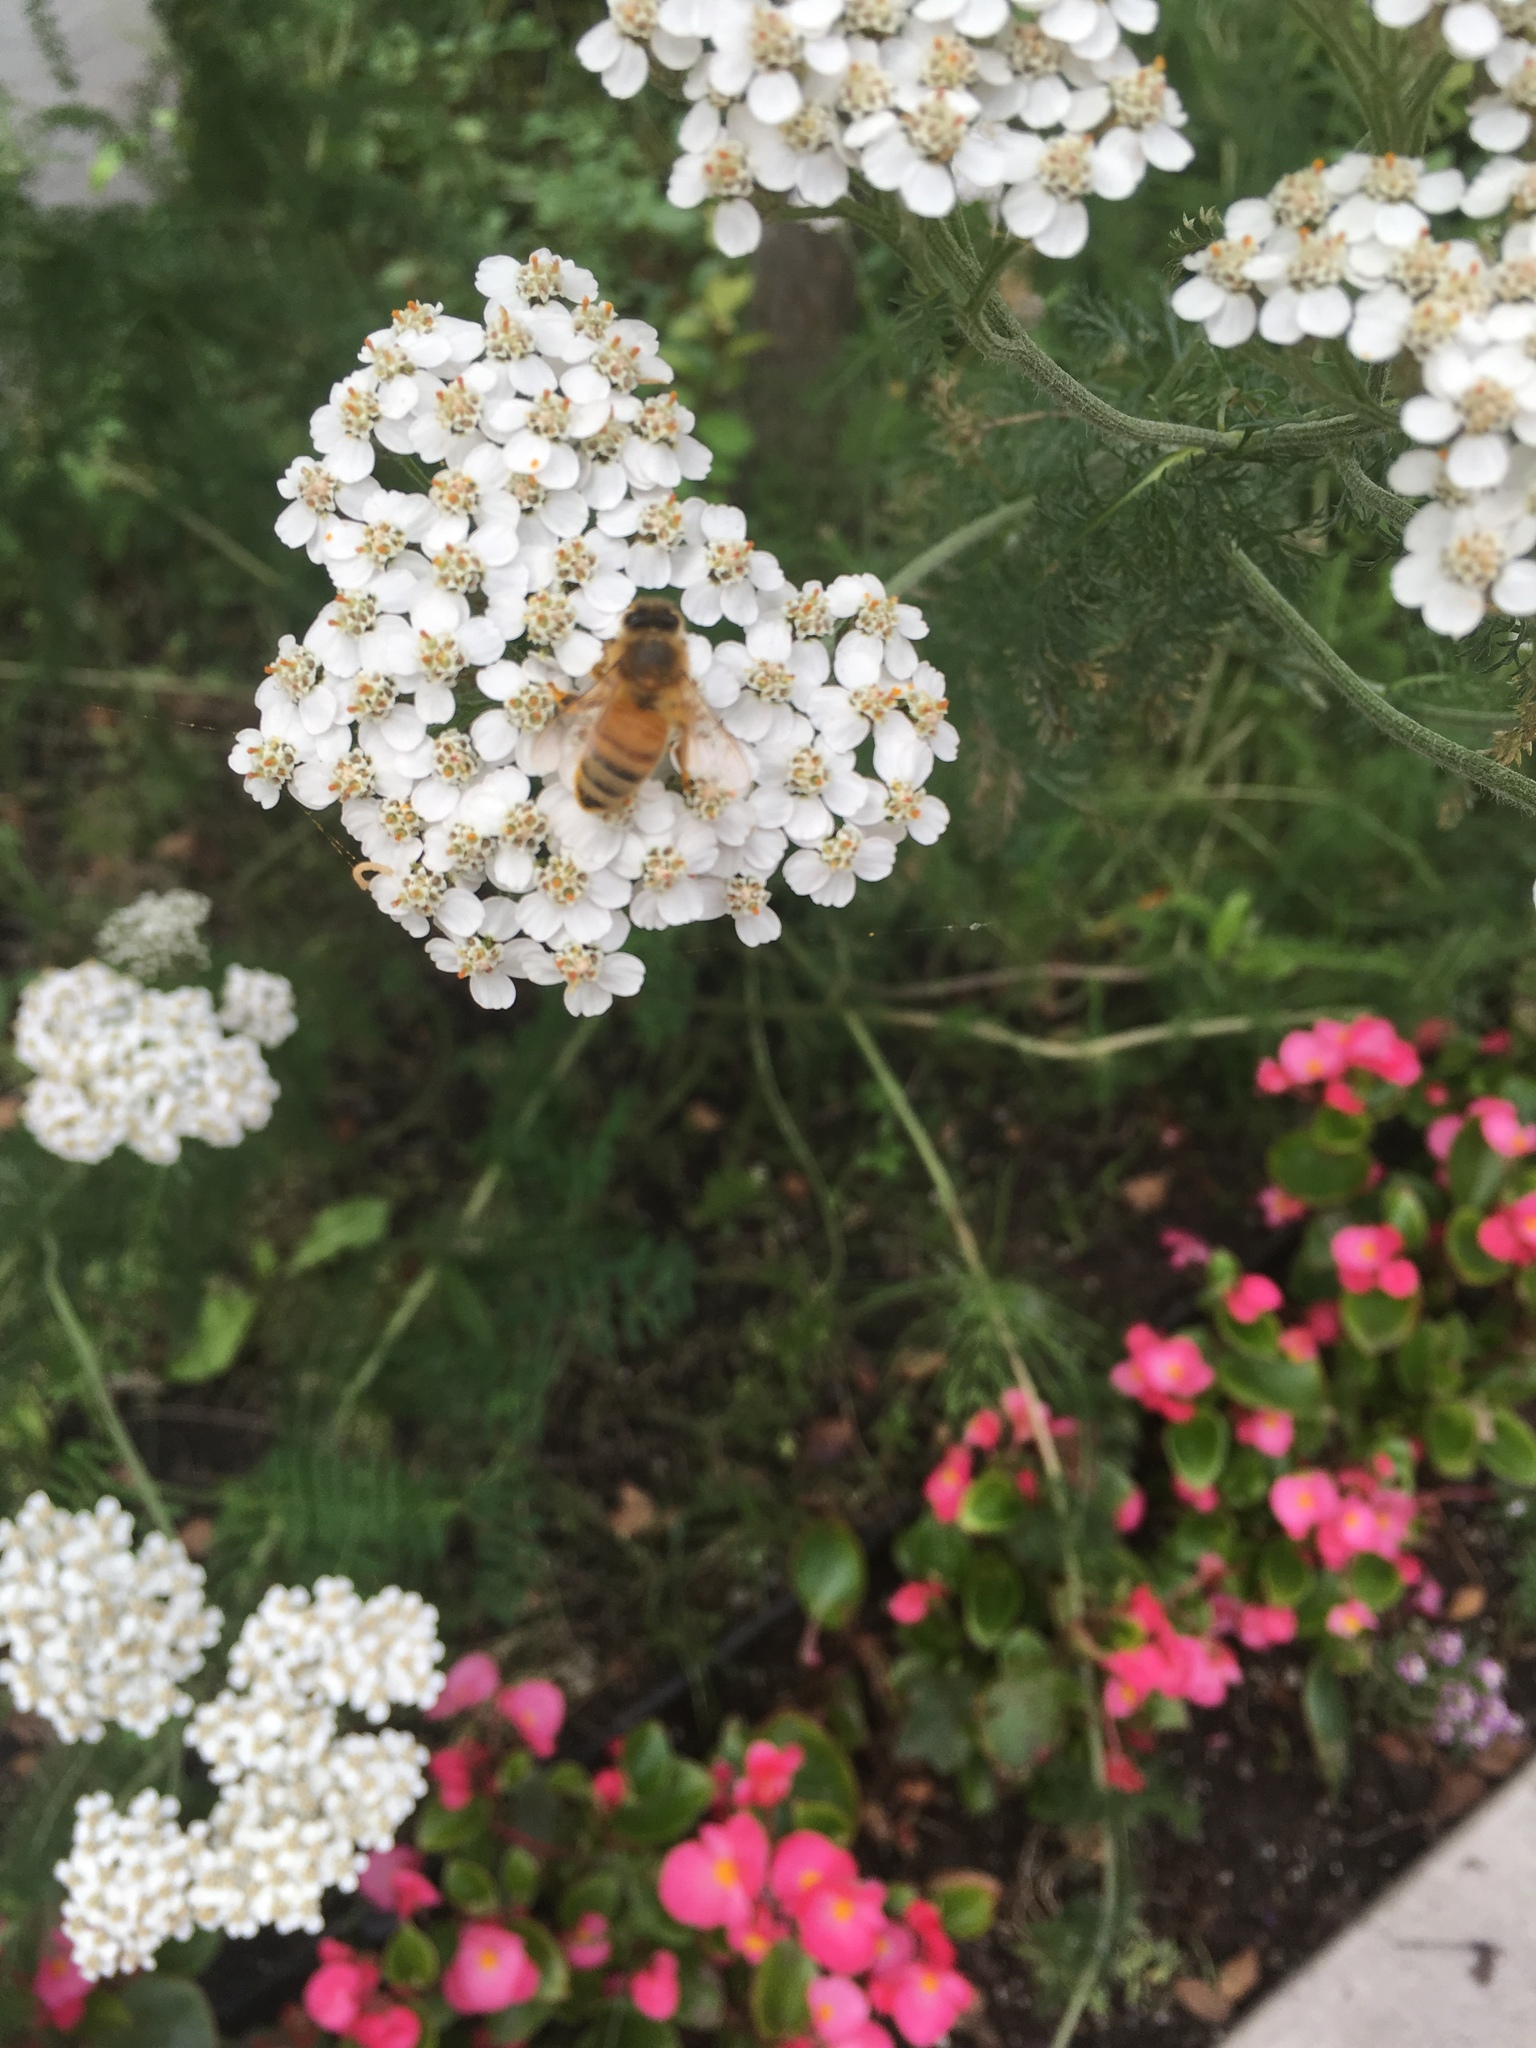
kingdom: Plantae
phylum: Tracheophyta
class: Magnoliopsida
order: Asterales
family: Asteraceae
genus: Achillea
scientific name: Achillea millefolium
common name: Yarrow
